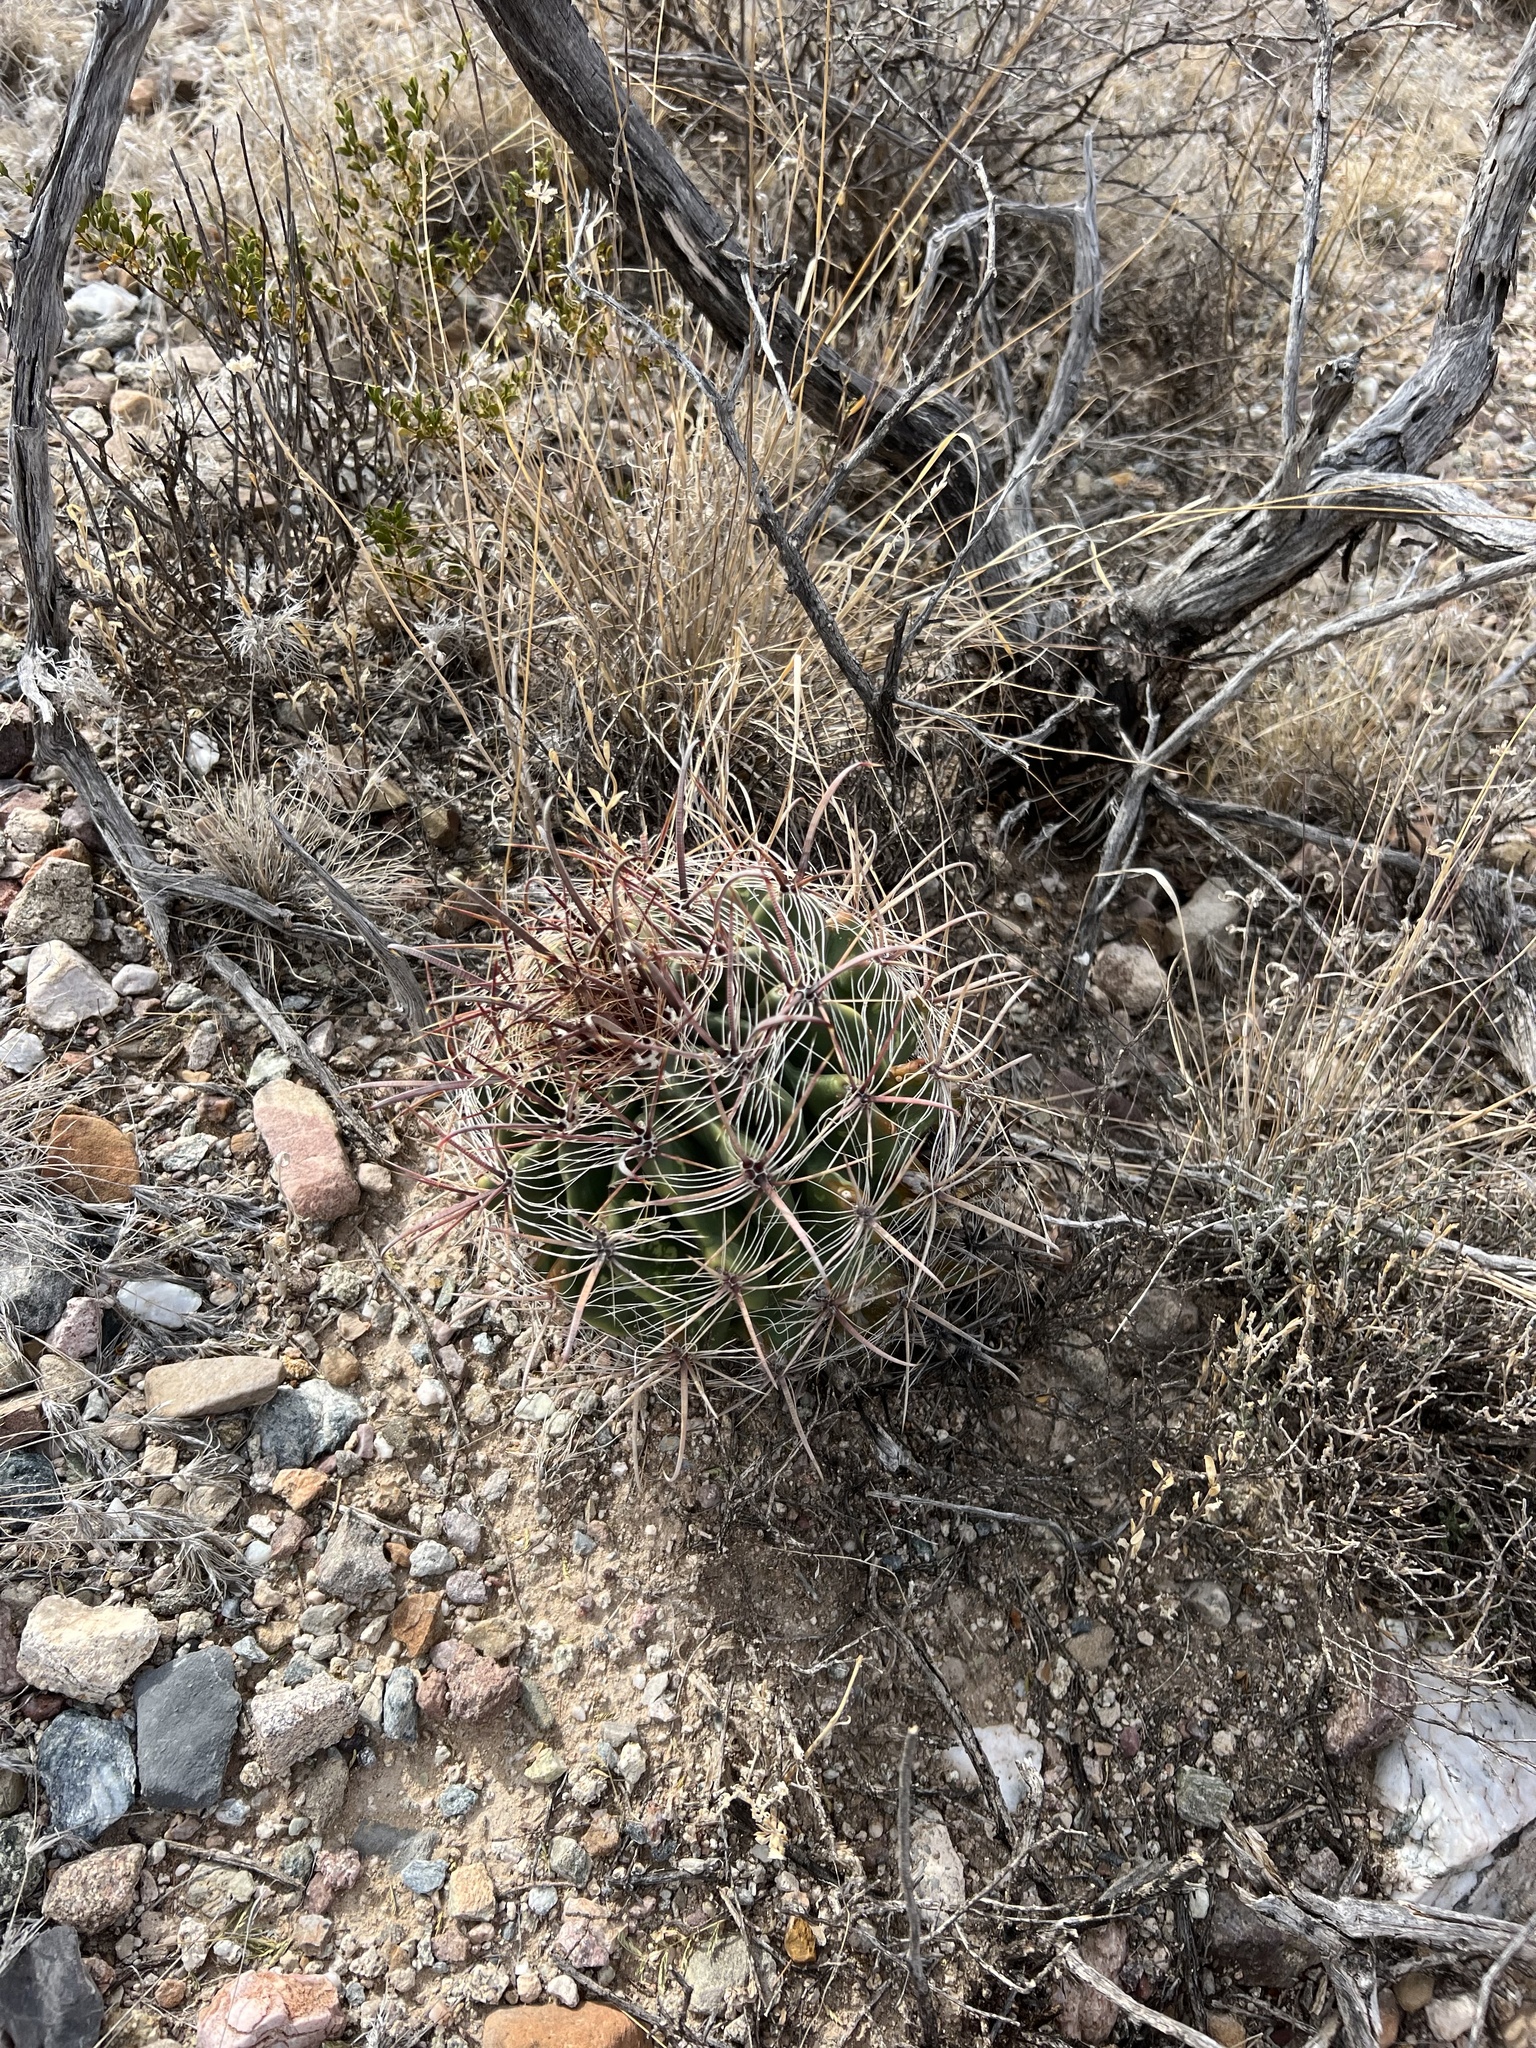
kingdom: Plantae
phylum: Tracheophyta
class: Magnoliopsida
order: Caryophyllales
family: Cactaceae
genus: Ferocactus
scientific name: Ferocactus wislizeni
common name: Candy barrel cactus
